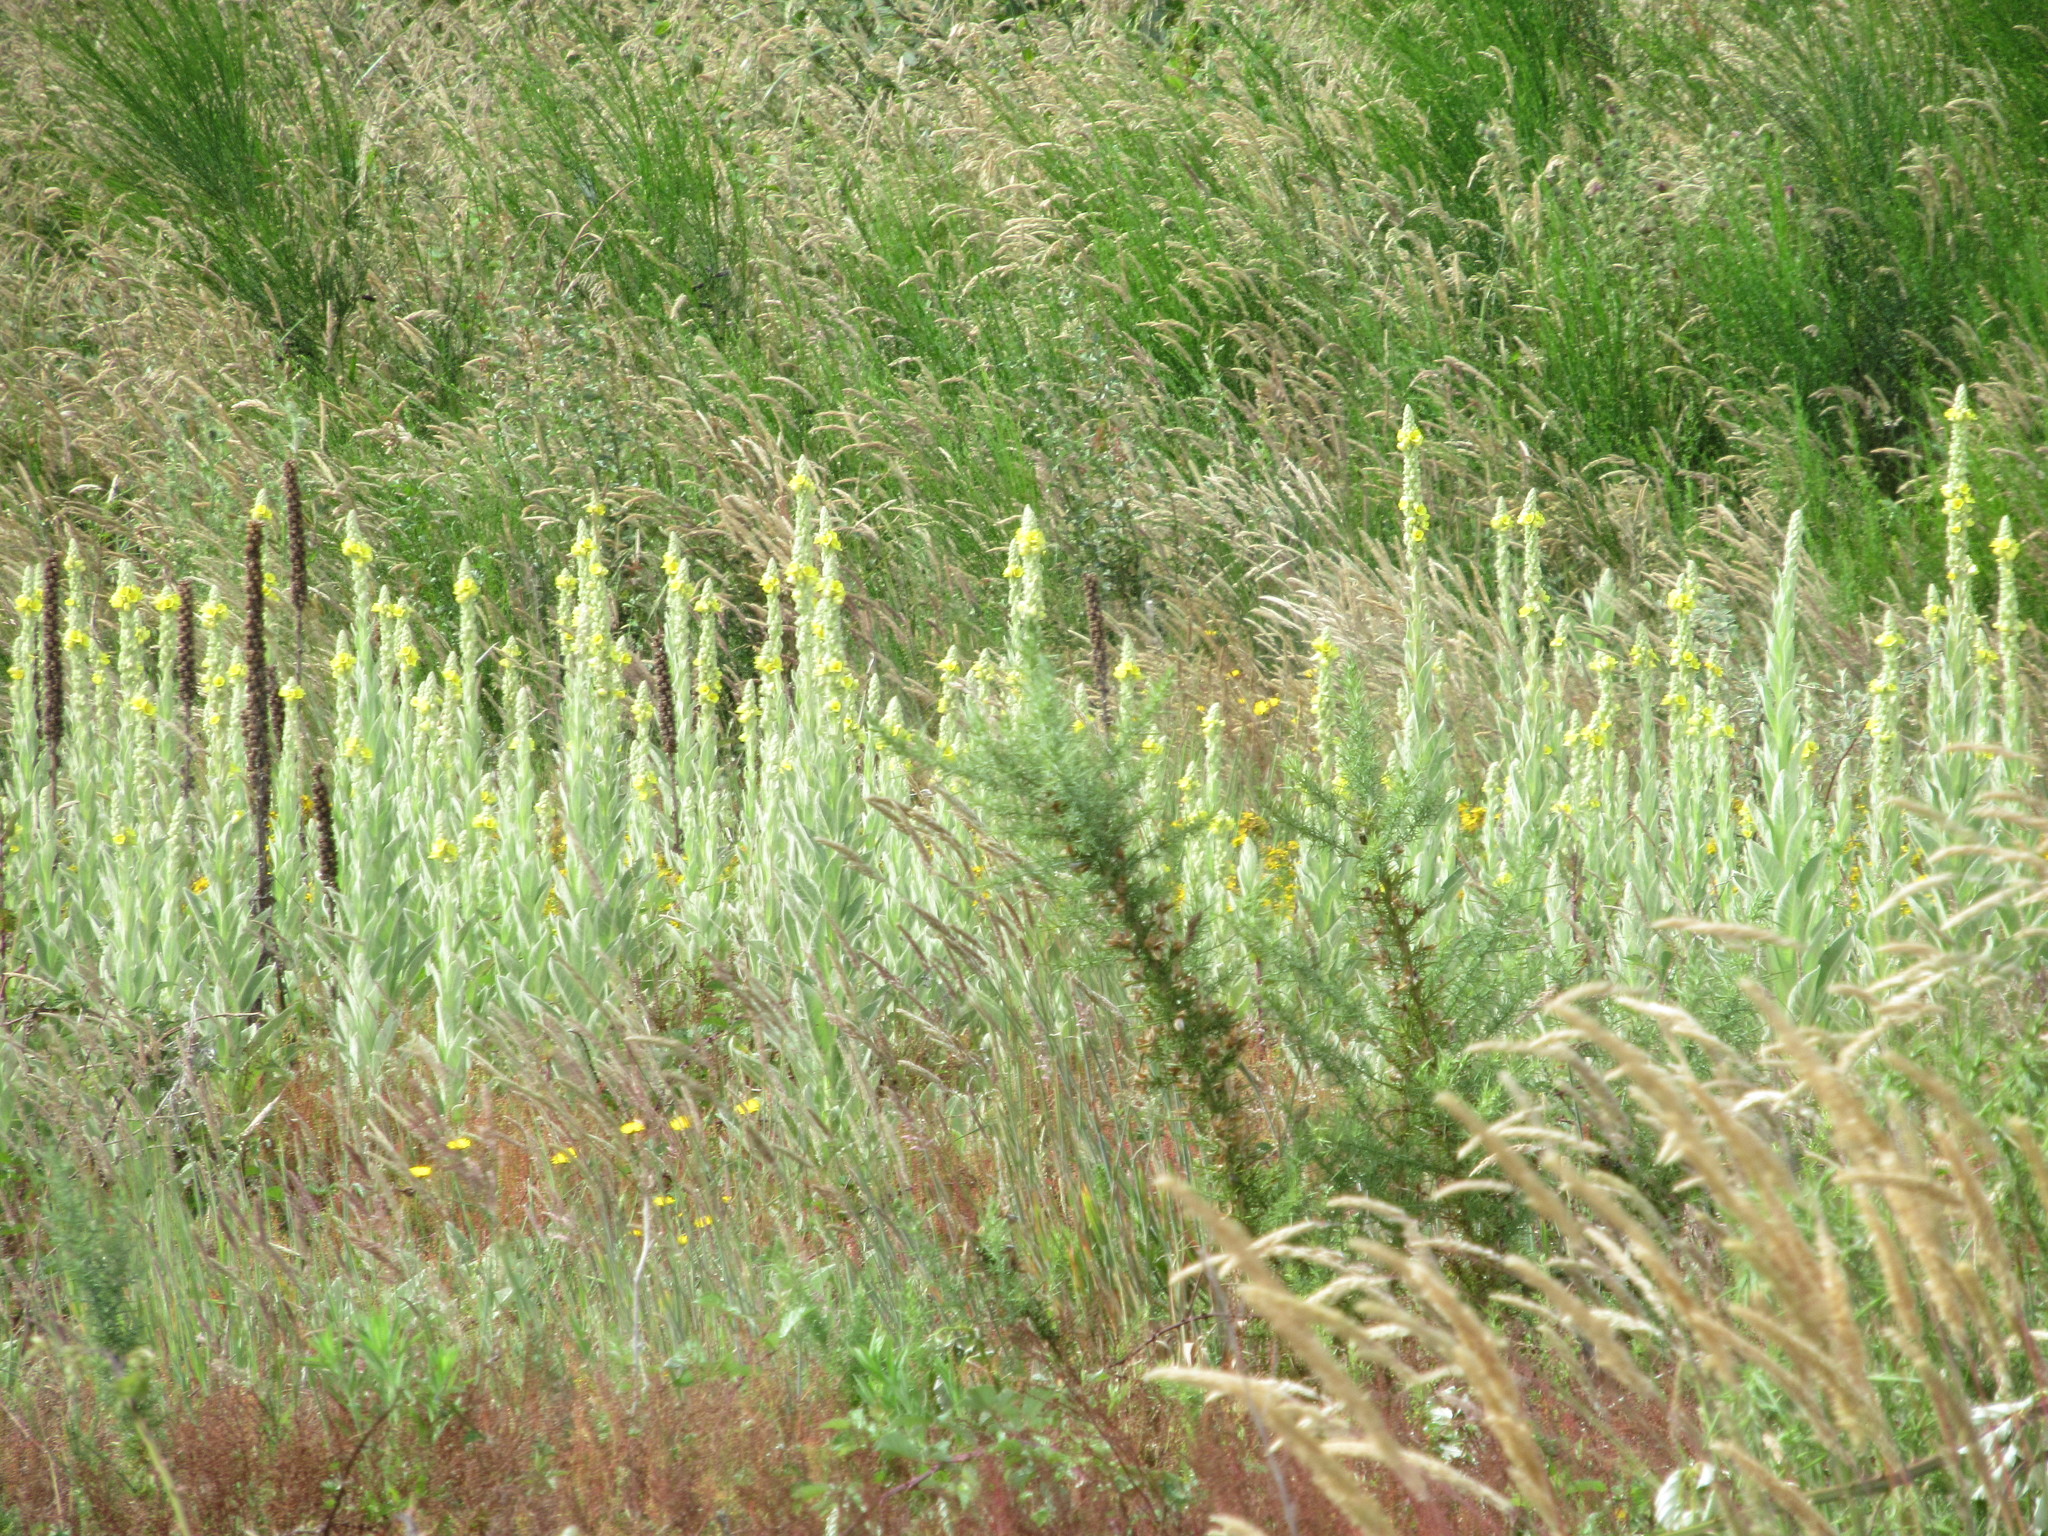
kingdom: Plantae
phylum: Tracheophyta
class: Magnoliopsida
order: Lamiales
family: Scrophulariaceae
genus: Verbascum
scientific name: Verbascum thapsus
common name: Common mullein
